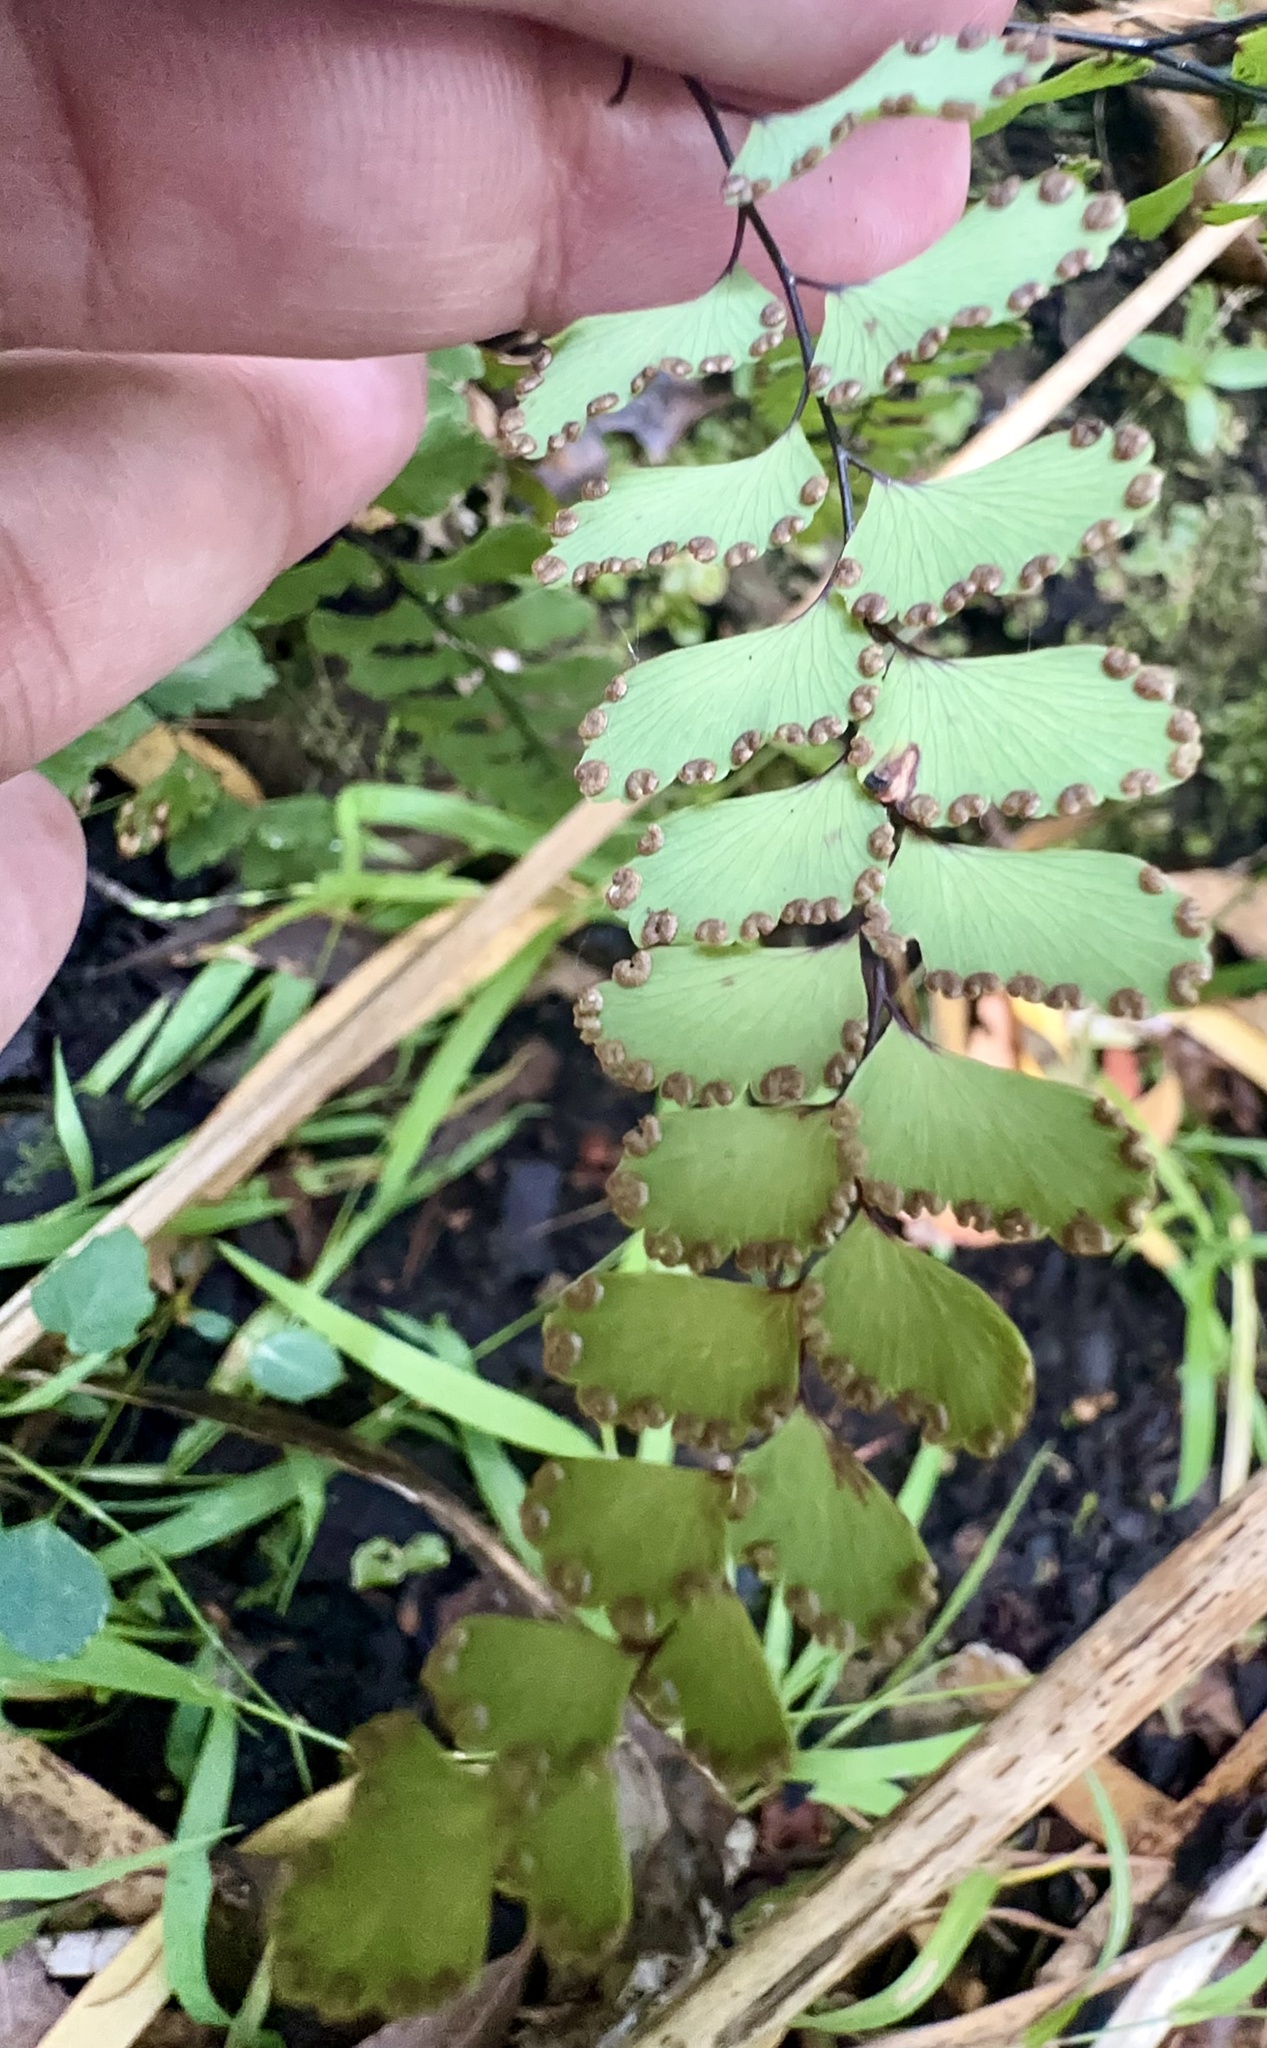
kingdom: Plantae
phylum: Tracheophyta
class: Polypodiopsida
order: Polypodiales
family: Pteridaceae
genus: Adiantum
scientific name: Adiantum cunninghamii
